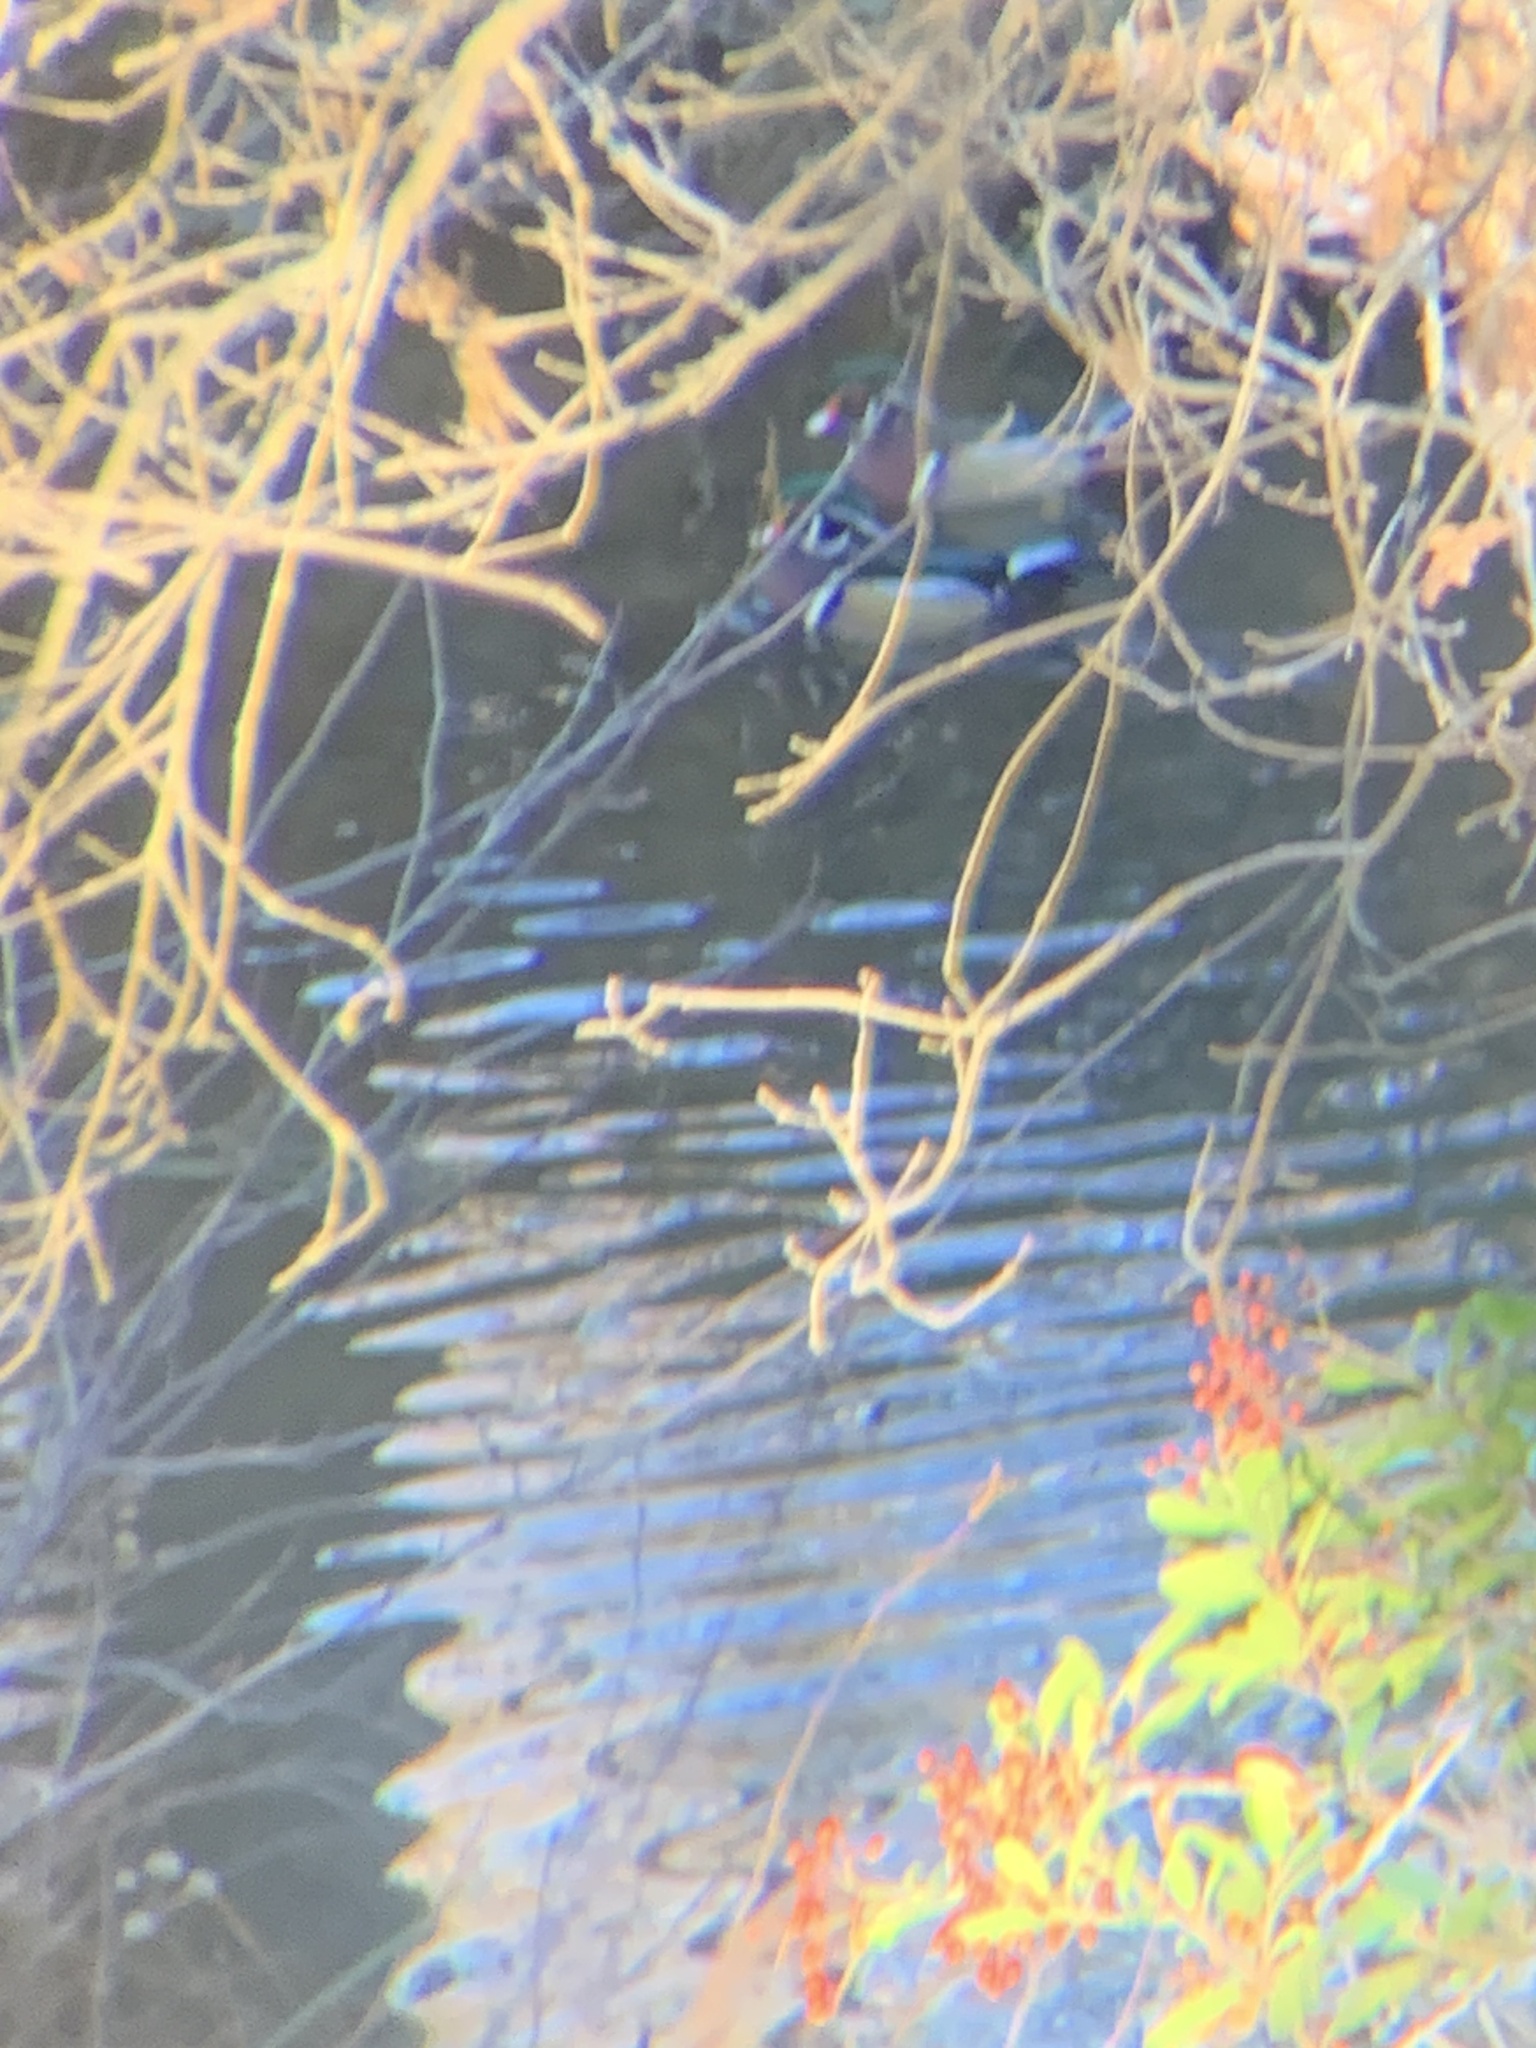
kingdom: Animalia
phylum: Chordata
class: Aves
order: Anseriformes
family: Anatidae
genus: Aix
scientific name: Aix sponsa
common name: Wood duck
